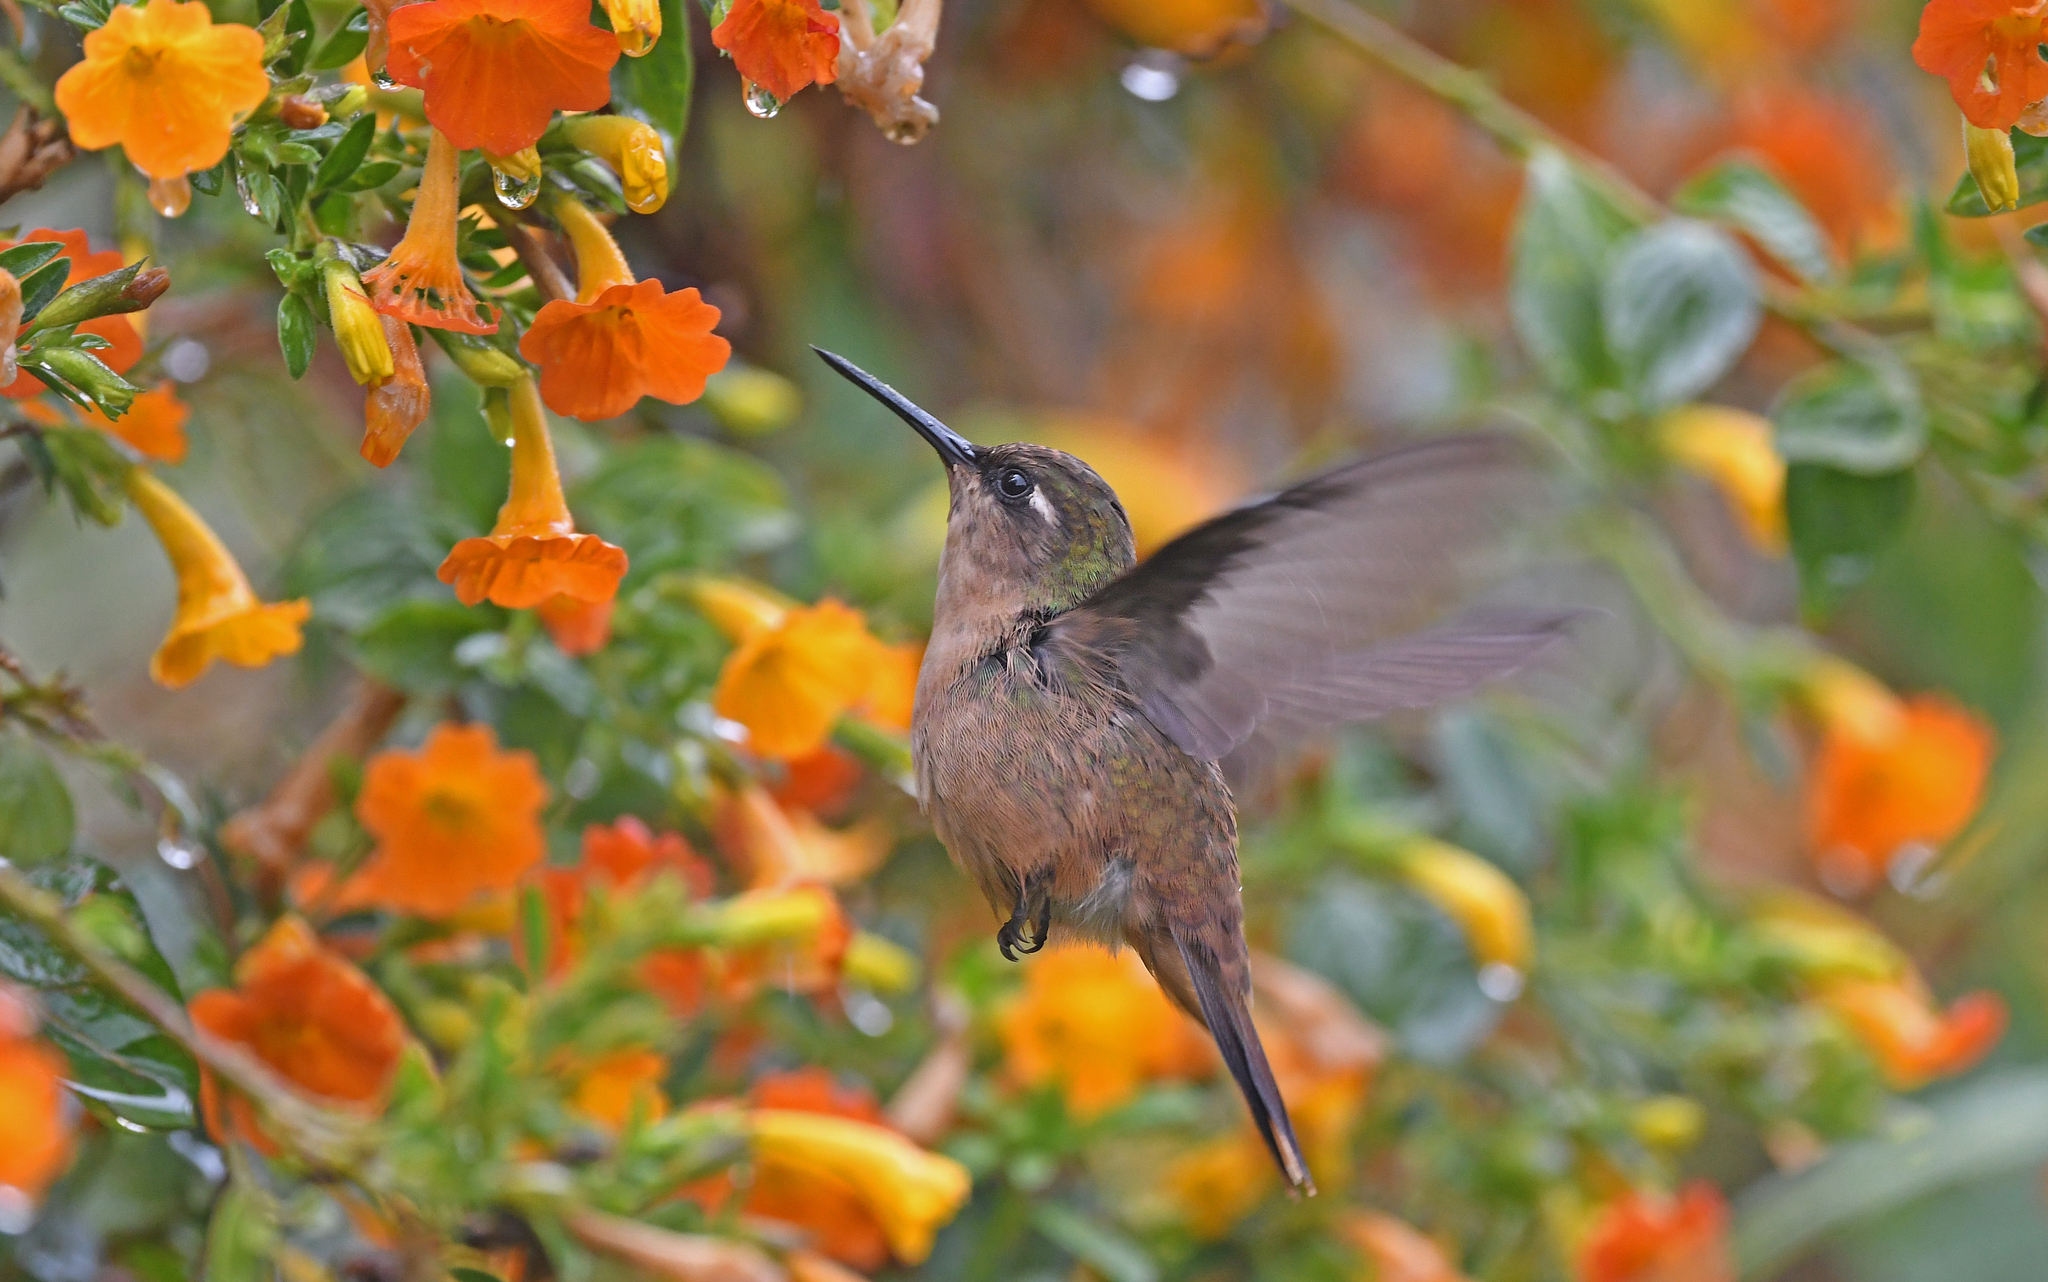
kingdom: Animalia
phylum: Chordata
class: Aves
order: Apodiformes
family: Trochilidae
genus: Anthocephala
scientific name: Anthocephala floriceps
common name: Santa marta blossomcrown
